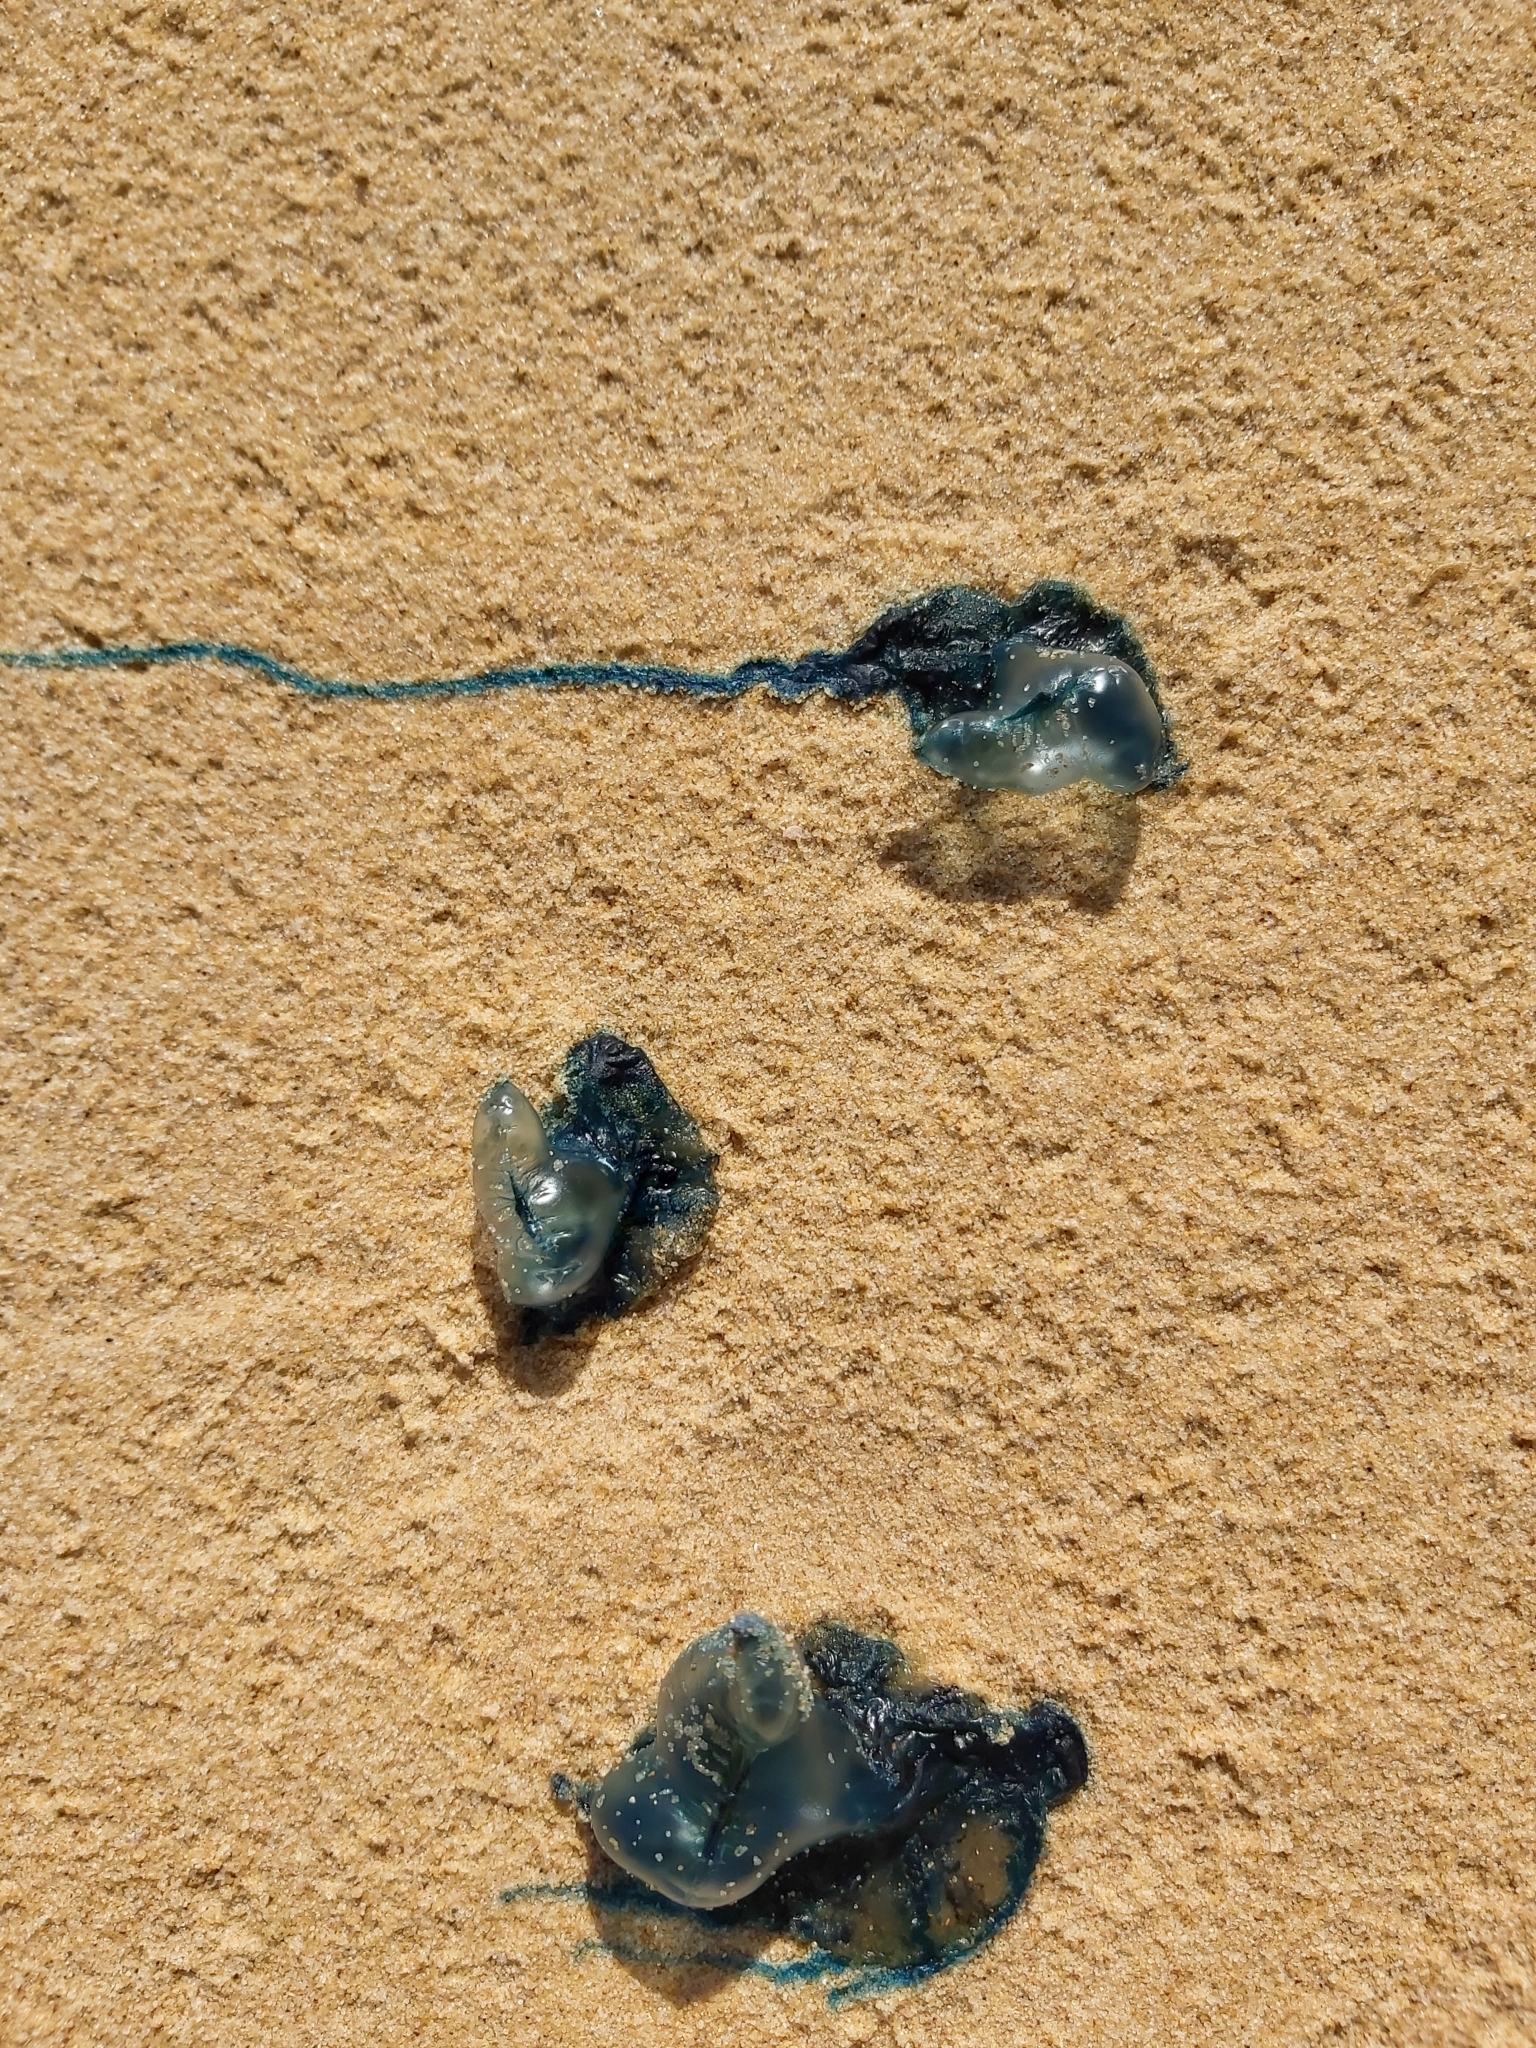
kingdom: Animalia
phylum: Cnidaria
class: Hydrozoa
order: Siphonophorae
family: Physaliidae
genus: Physalia
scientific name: Physalia physalis
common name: Portuguese man-of-war
